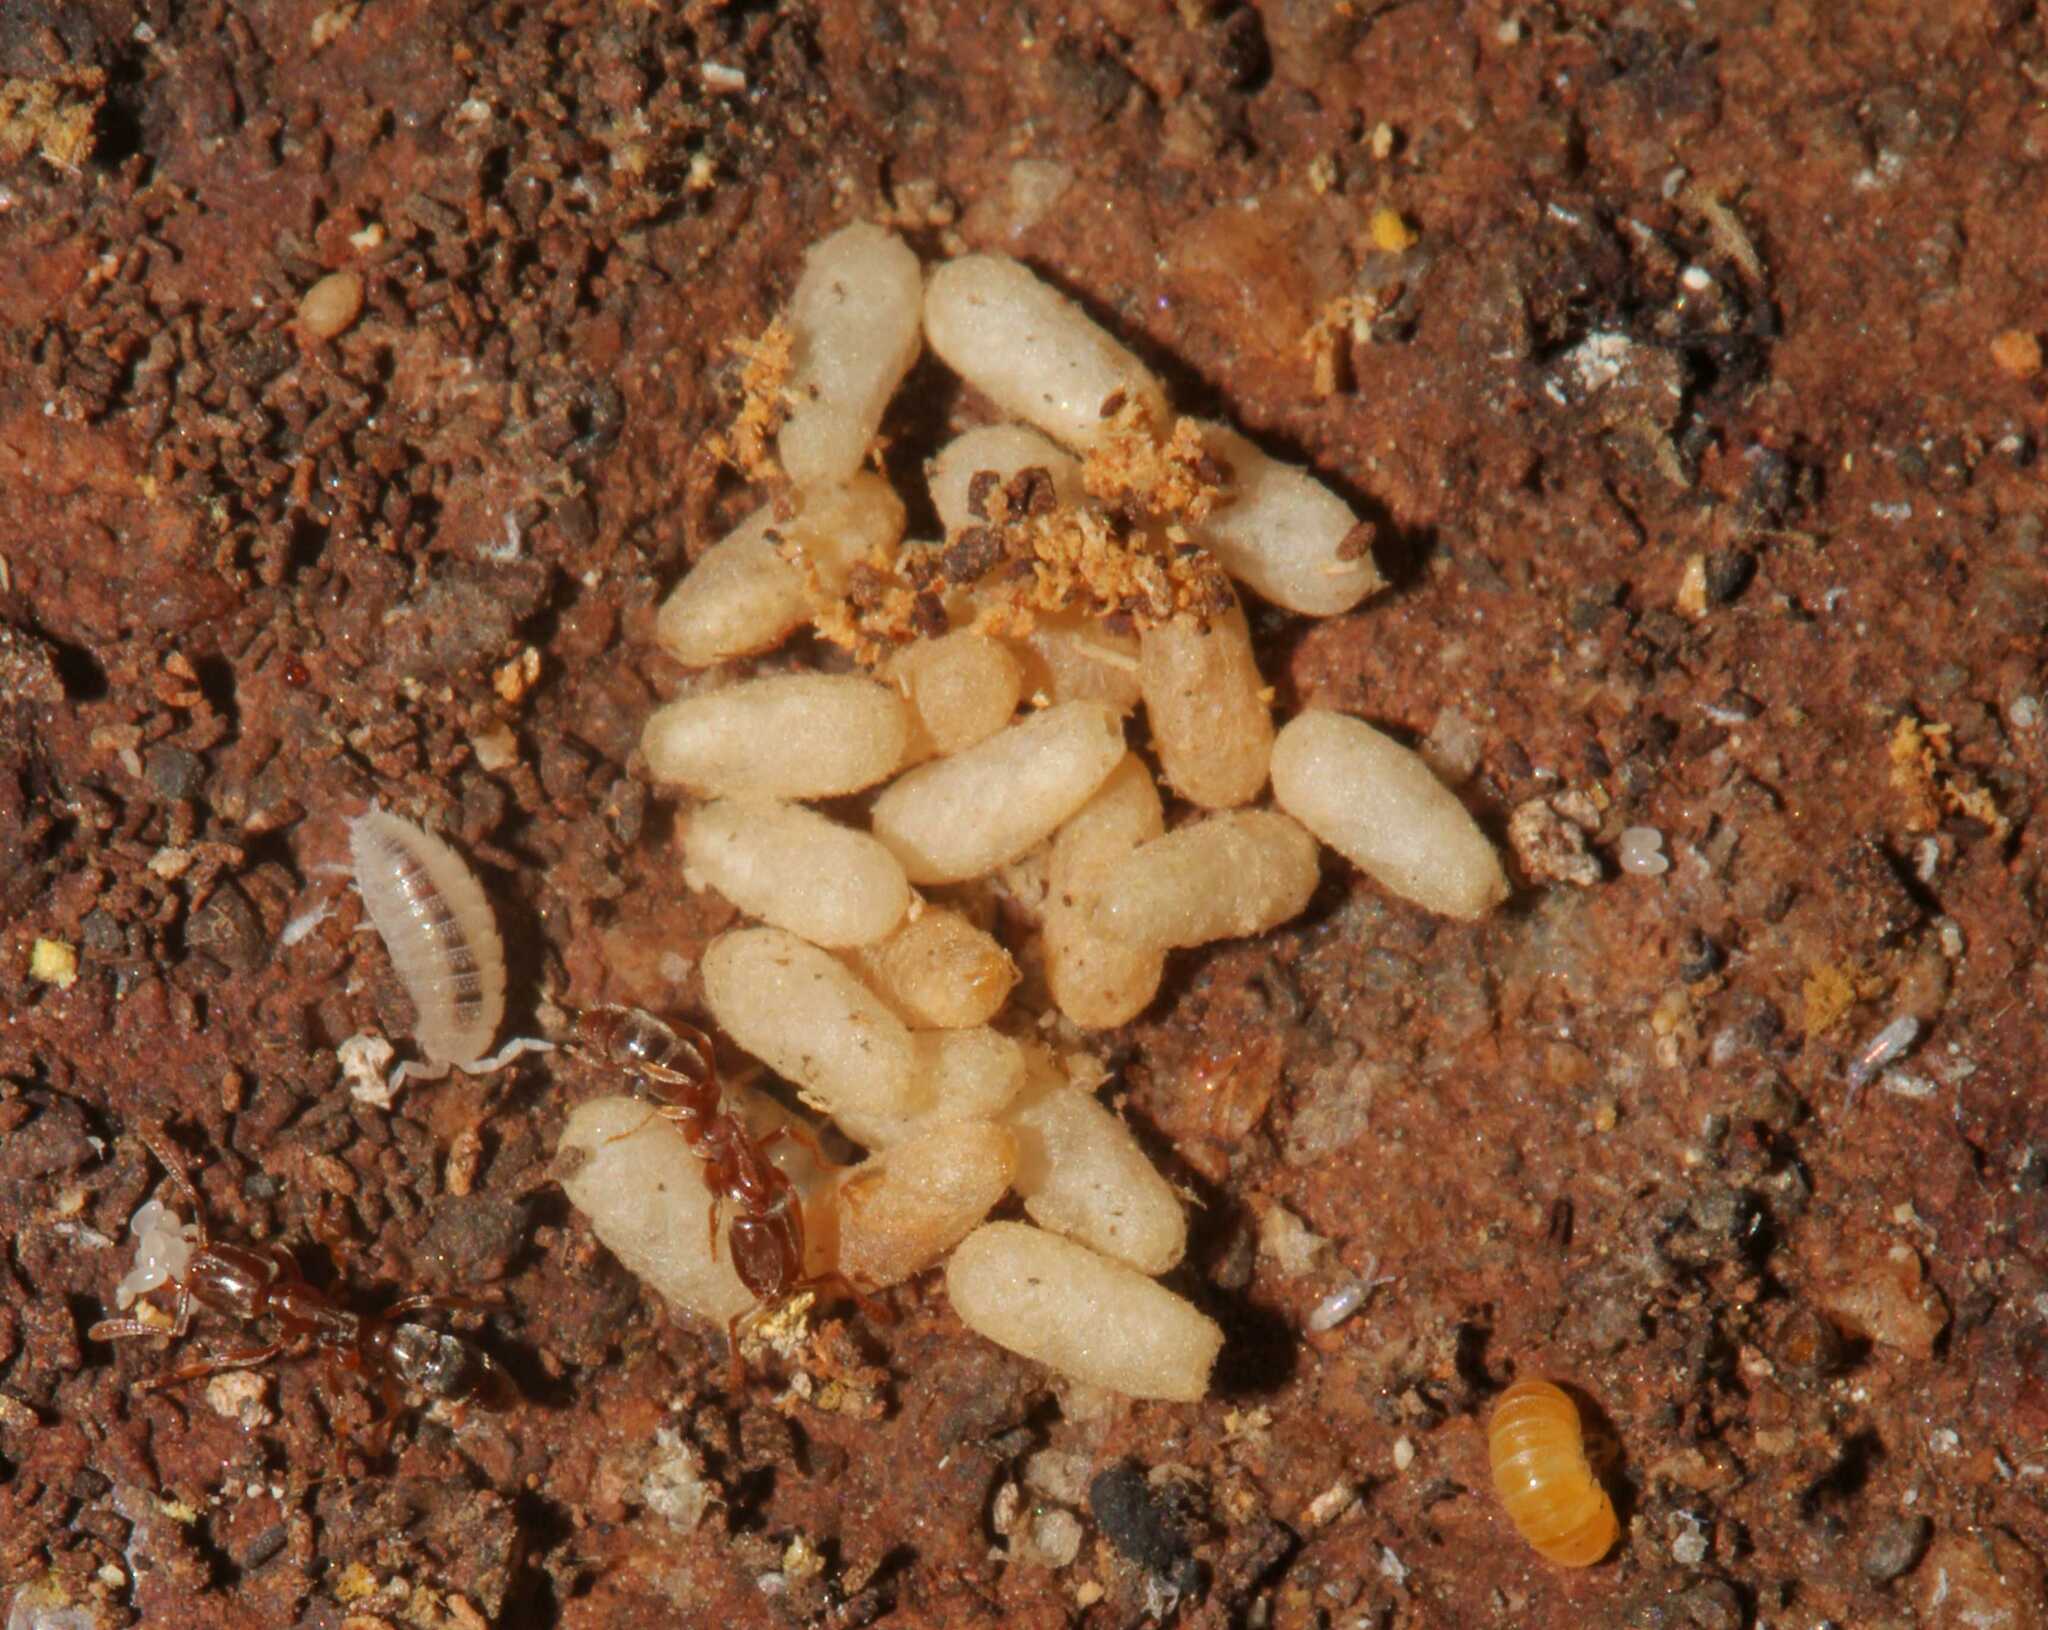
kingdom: Animalia
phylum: Arthropoda
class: Insecta
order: Hymenoptera
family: Formicidae
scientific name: Formicidae
